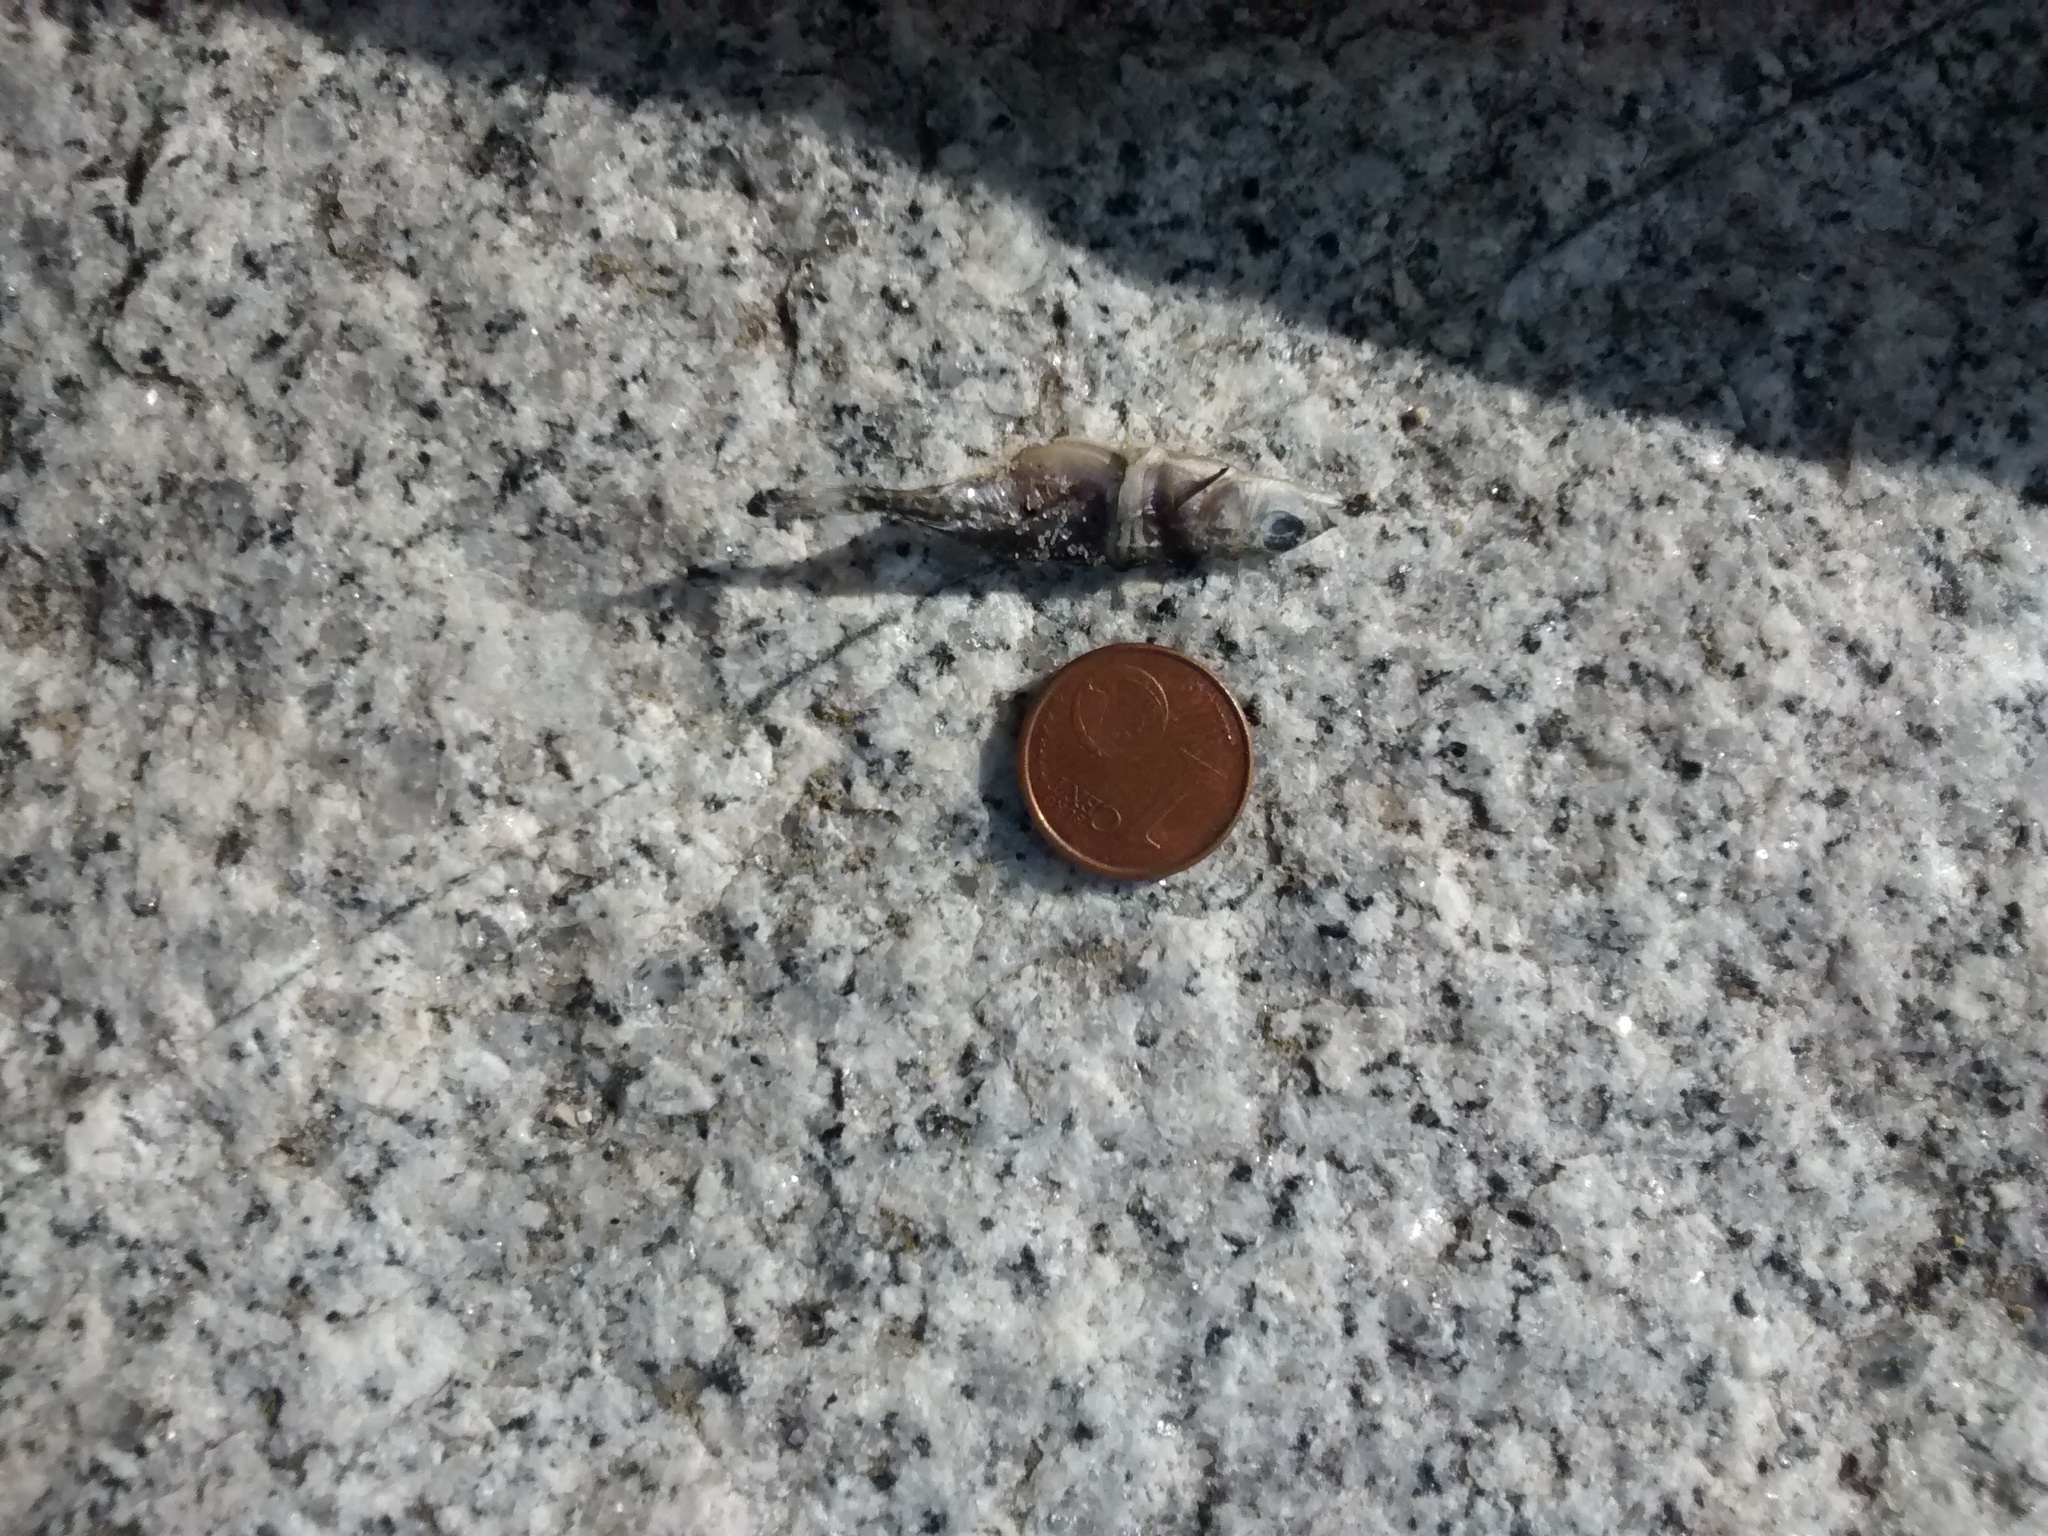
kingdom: Animalia
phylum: Chordata
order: Gasterosteiformes
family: Gasterosteidae
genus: Gasterosteus
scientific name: Gasterosteus aculeatus
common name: Three-spined stickleback
